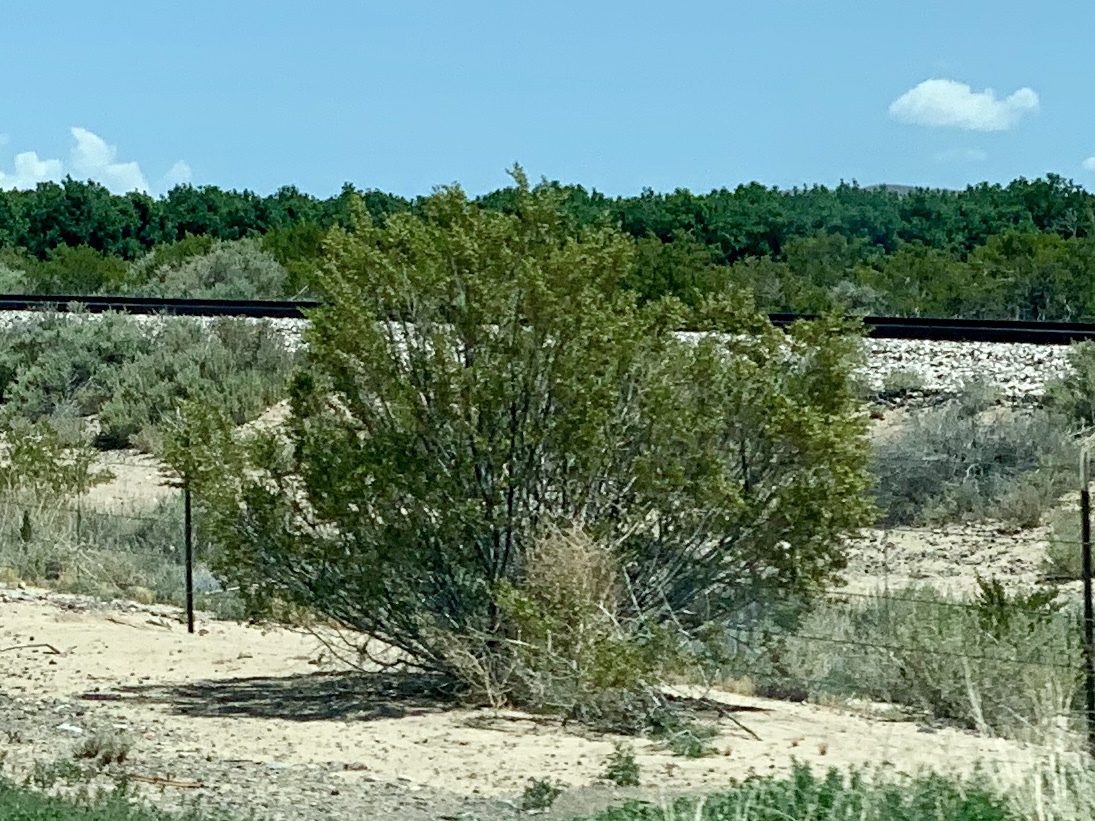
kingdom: Plantae
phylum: Tracheophyta
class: Magnoliopsida
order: Zygophyllales
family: Zygophyllaceae
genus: Larrea
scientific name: Larrea tridentata
